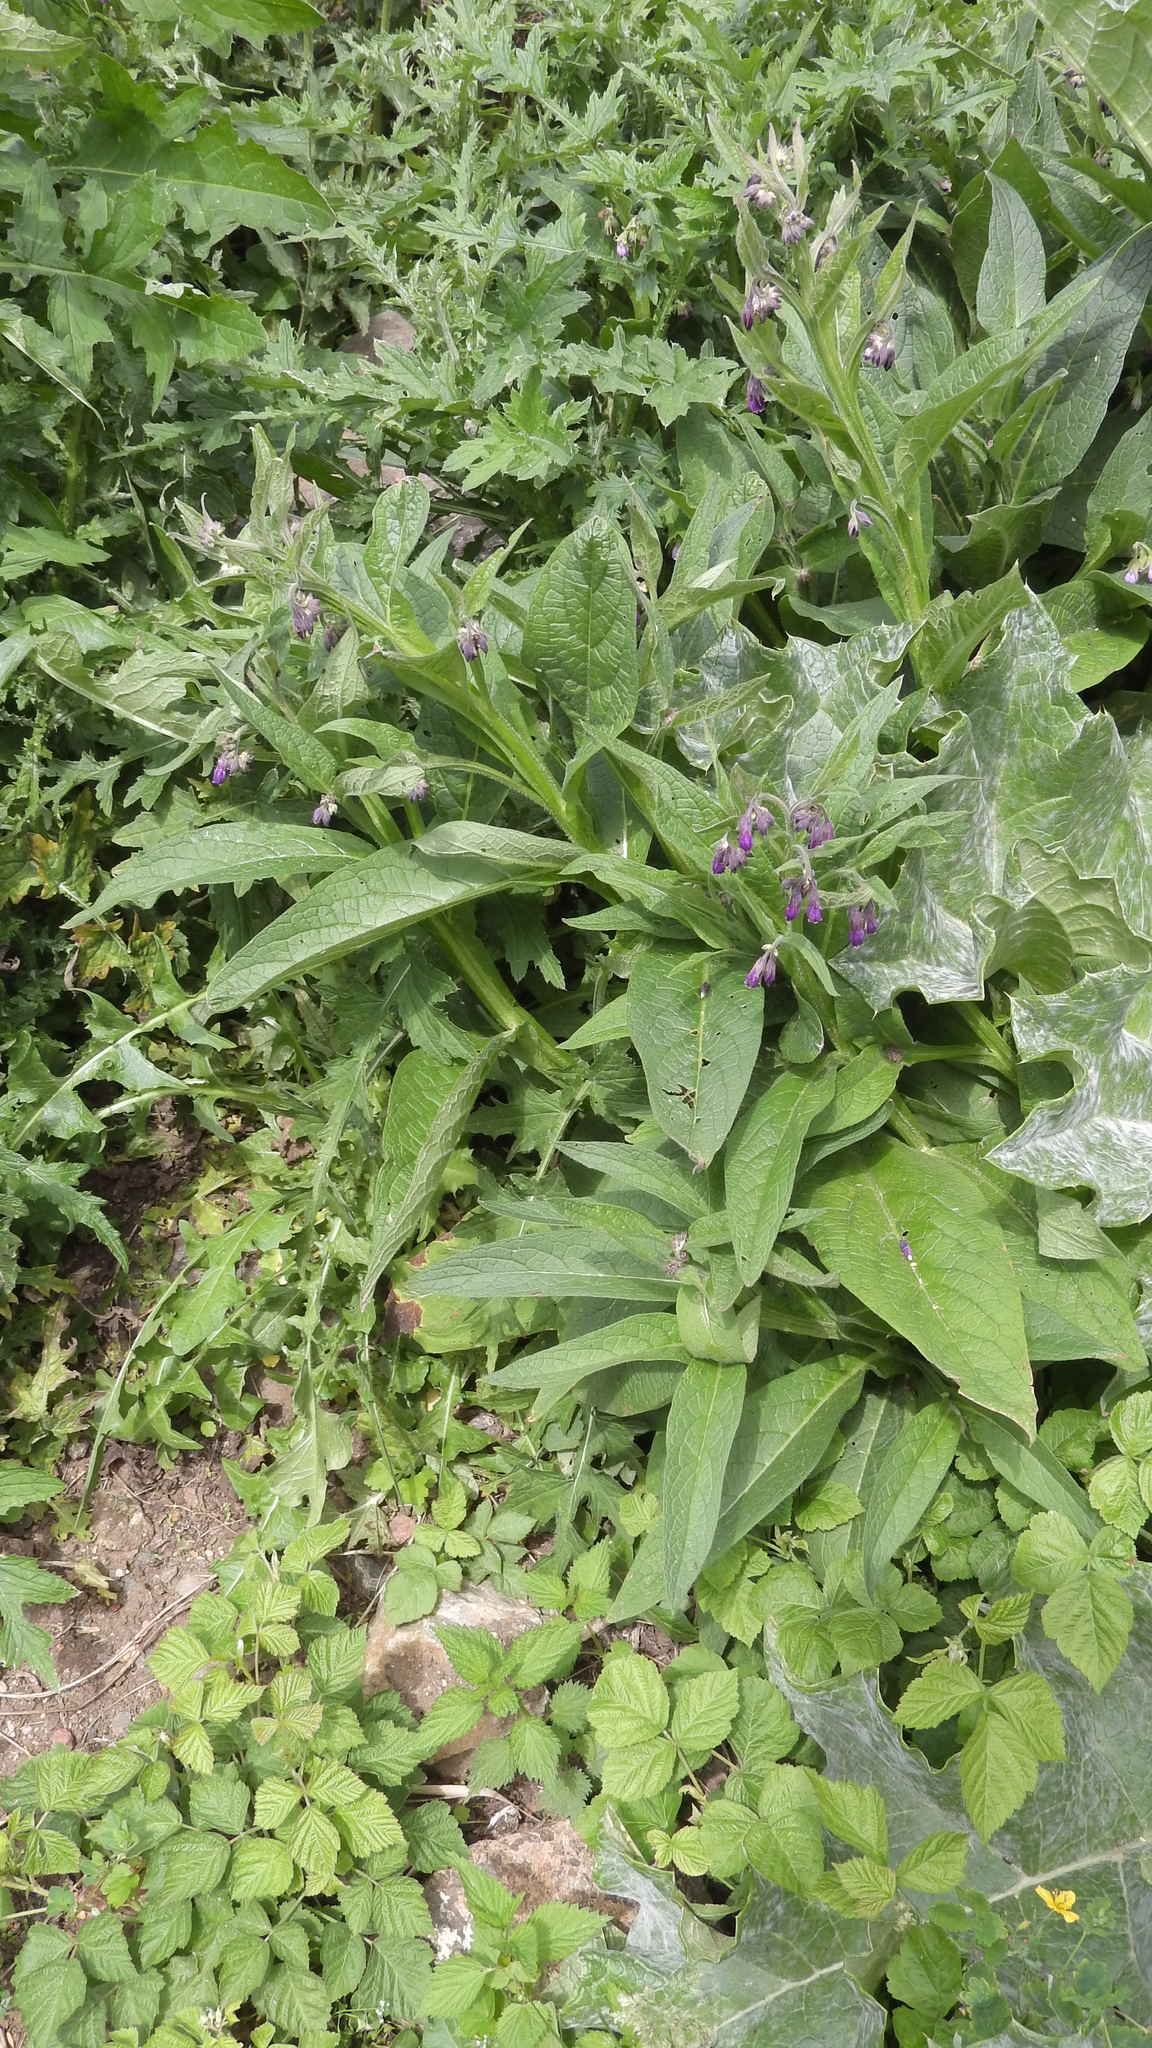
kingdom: Plantae
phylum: Tracheophyta
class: Magnoliopsida
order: Boraginales
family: Boraginaceae
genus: Symphytum
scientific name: Symphytum officinale
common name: Common comfrey
